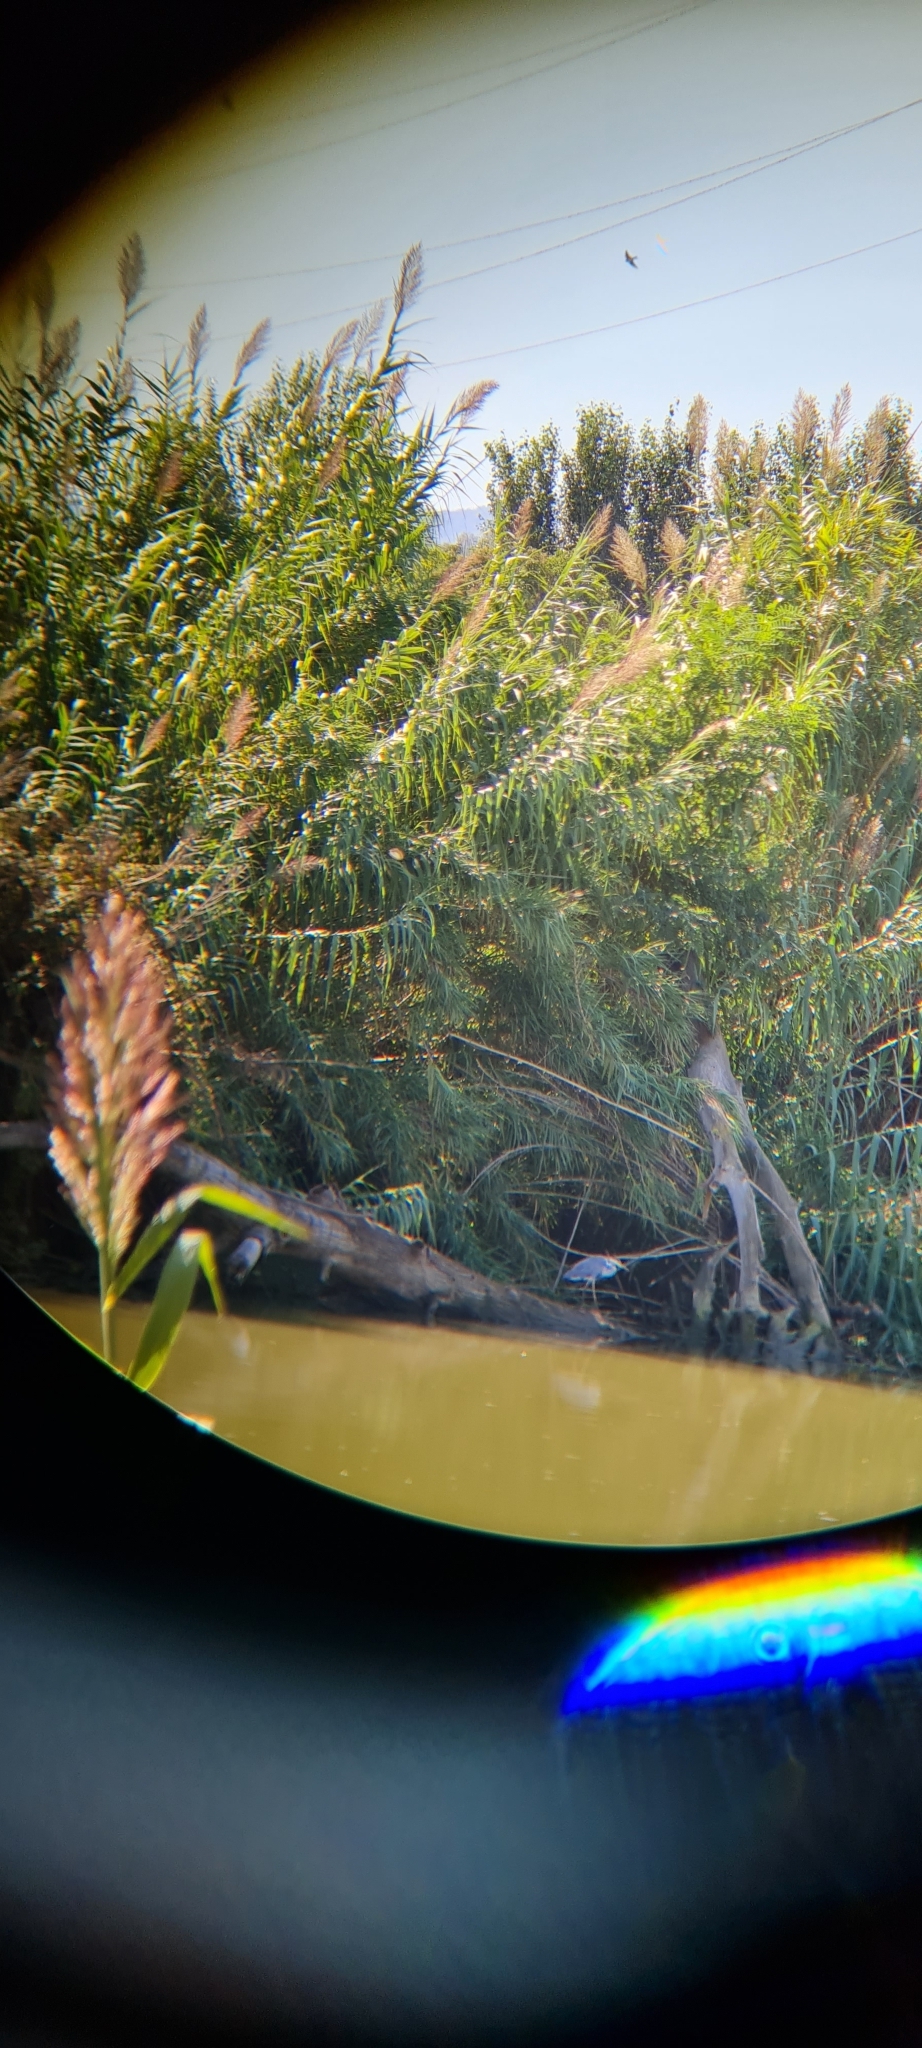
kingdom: Animalia
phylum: Chordata
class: Aves
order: Pelecaniformes
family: Ardeidae
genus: Ardea
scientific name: Ardea cinerea
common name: Grey heron
